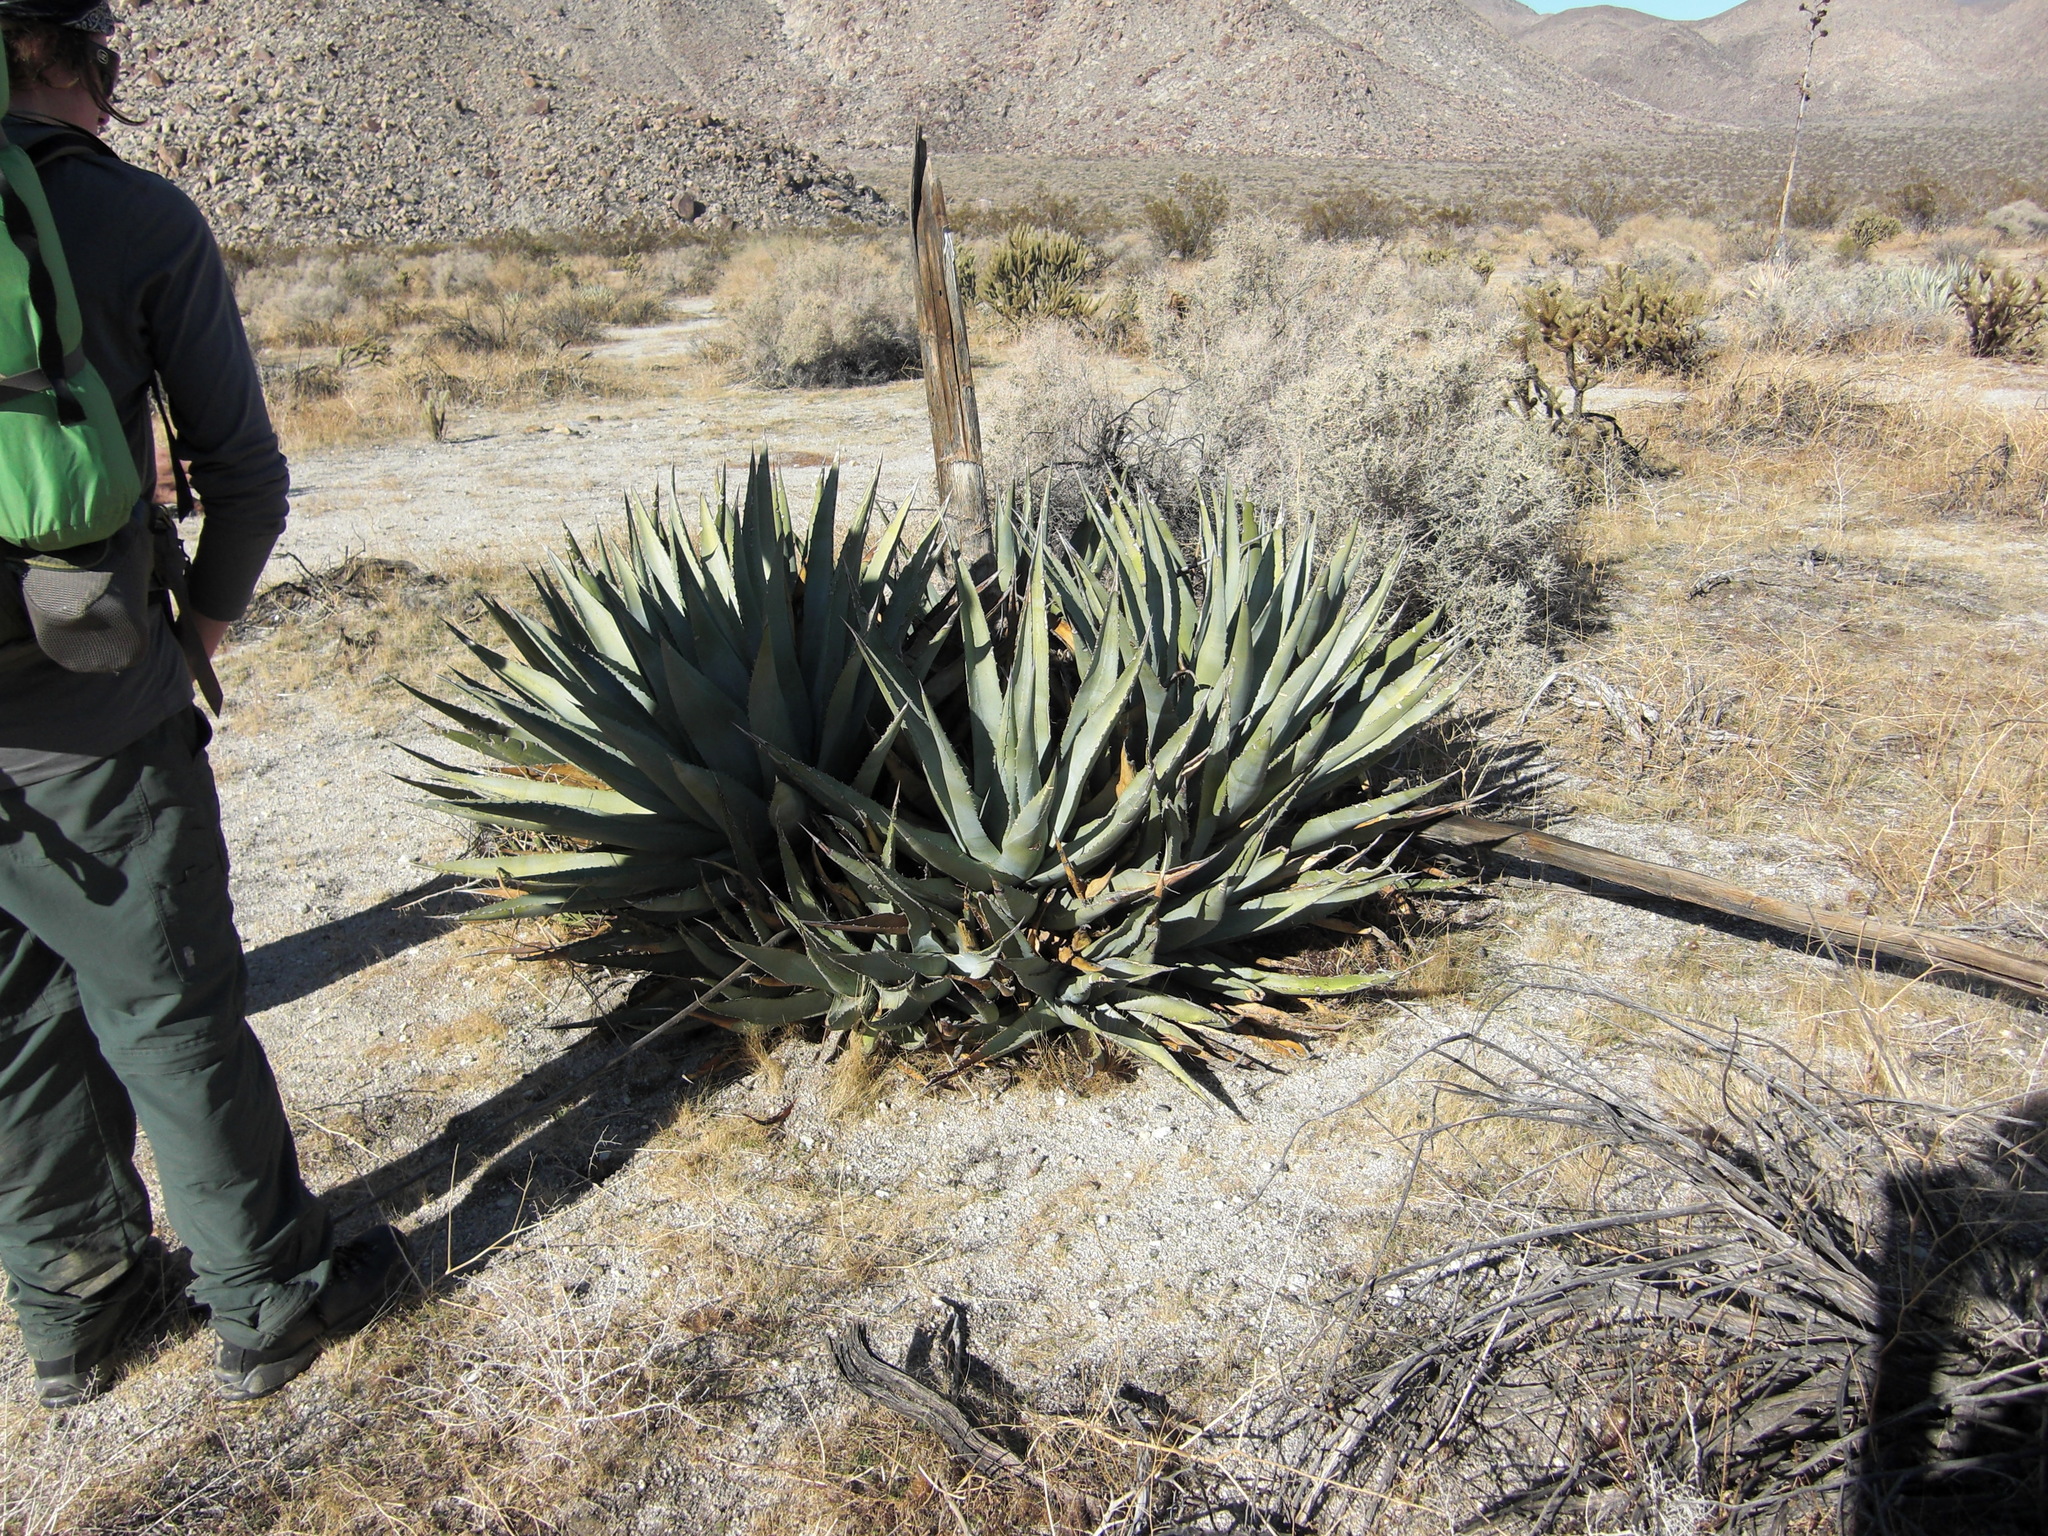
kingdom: Plantae
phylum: Tracheophyta
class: Liliopsida
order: Asparagales
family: Asparagaceae
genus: Agave
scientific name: Agave deserti
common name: Desert agave
